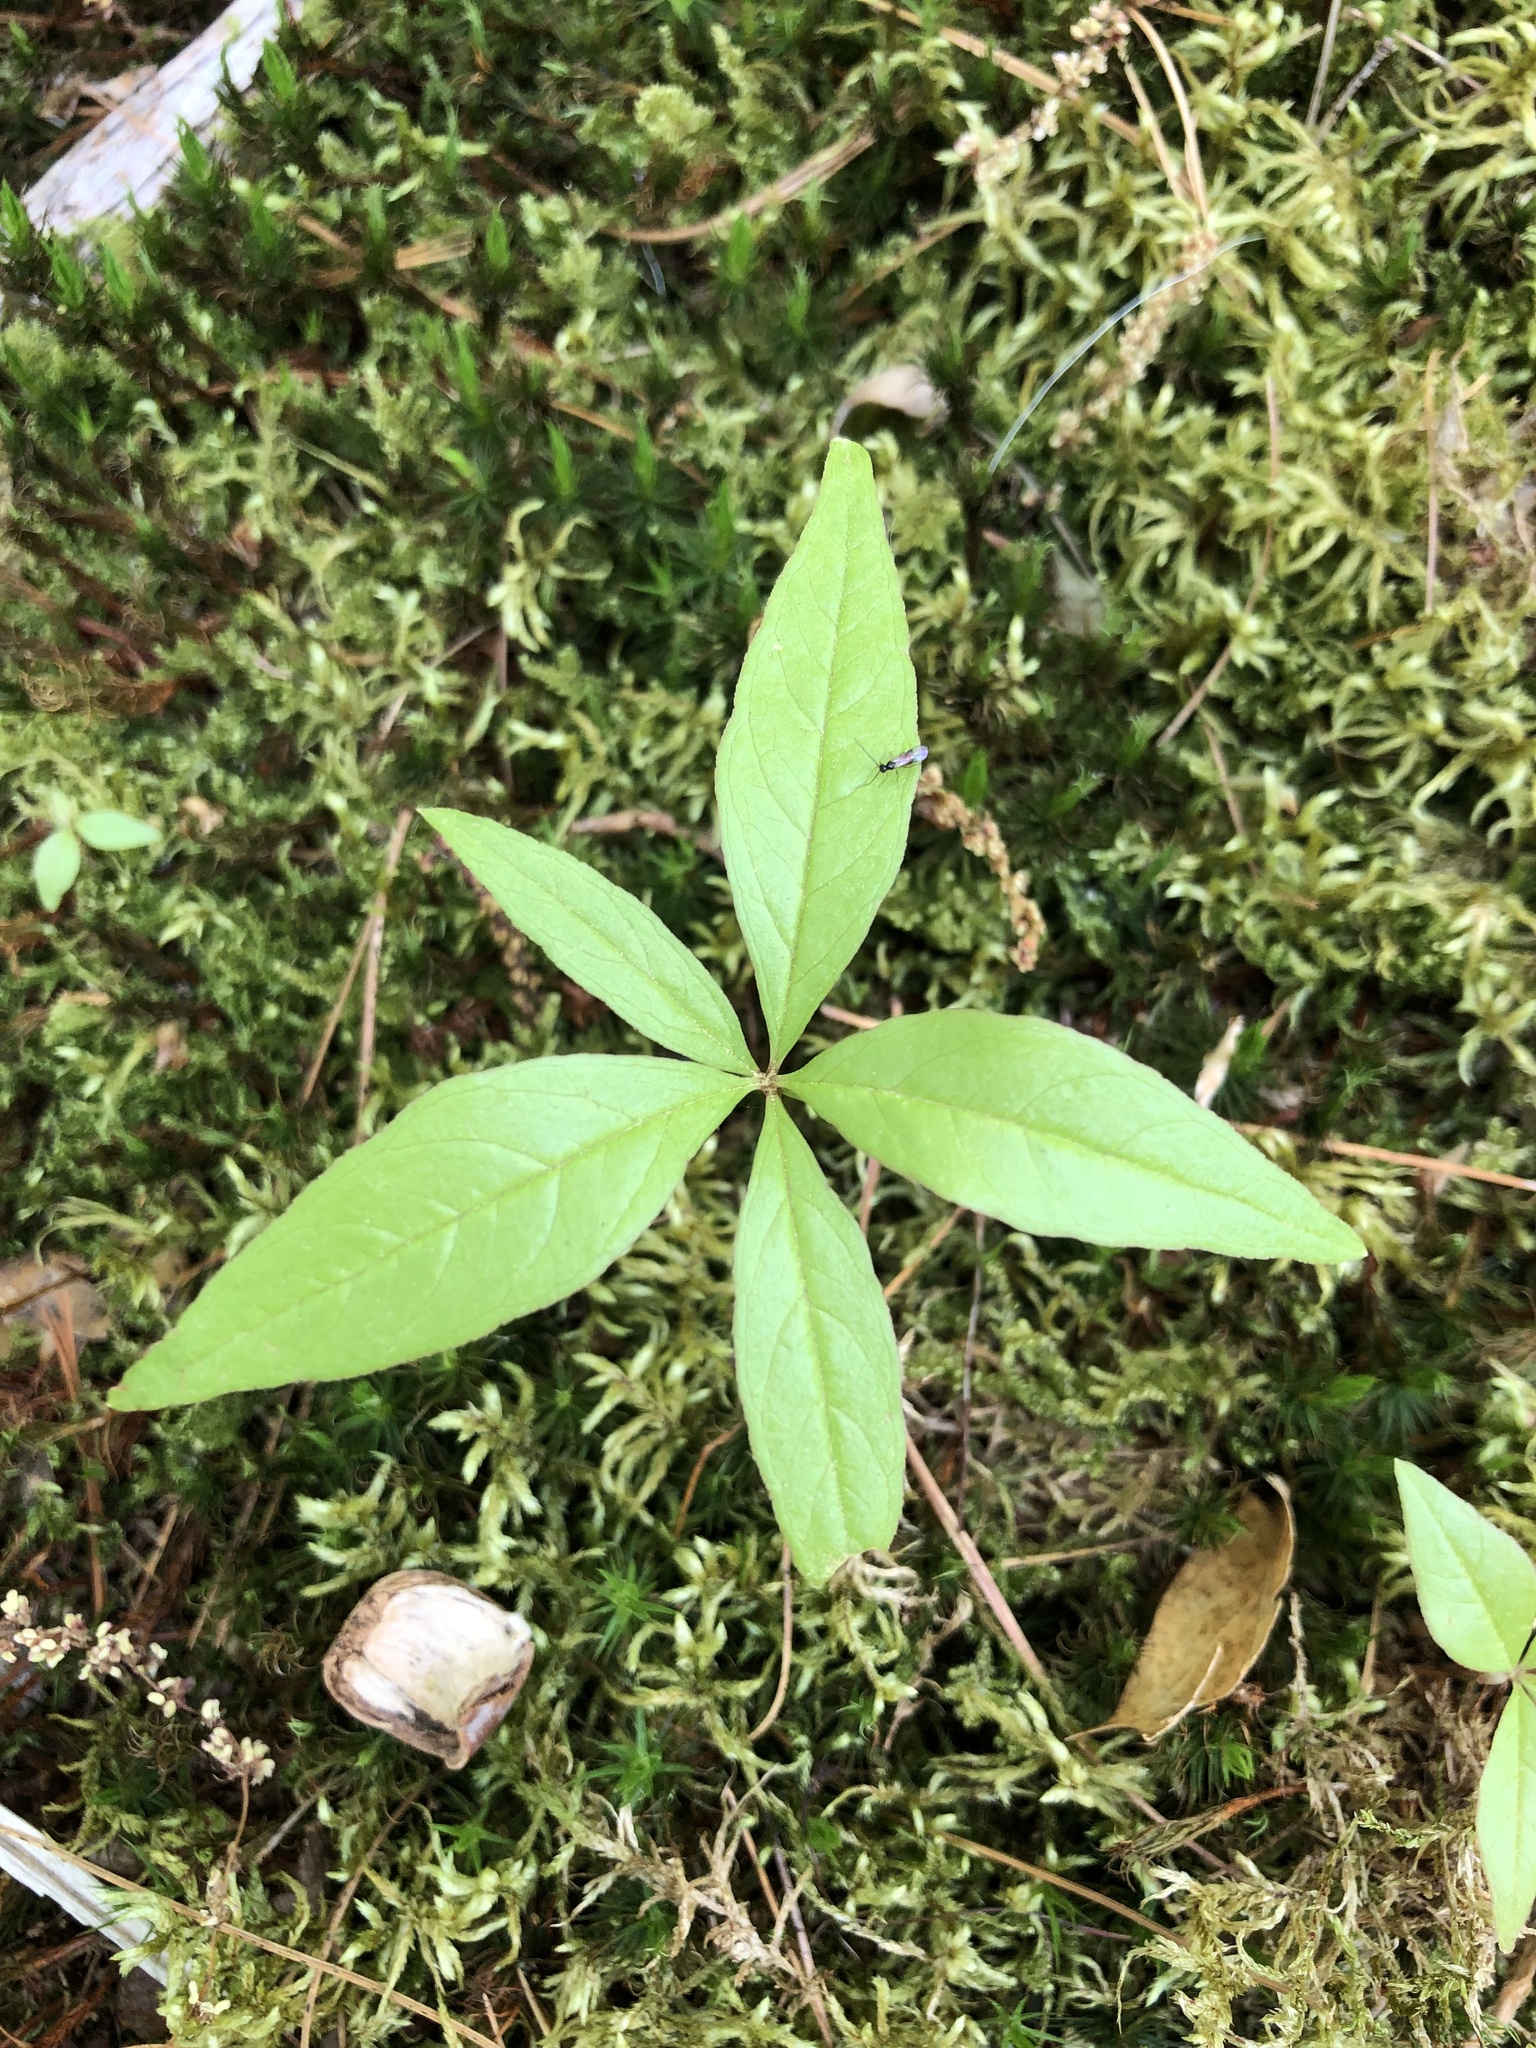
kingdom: Plantae
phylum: Tracheophyta
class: Magnoliopsida
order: Ericales
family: Primulaceae
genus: Lysimachia
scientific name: Lysimachia borealis
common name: American starflower
